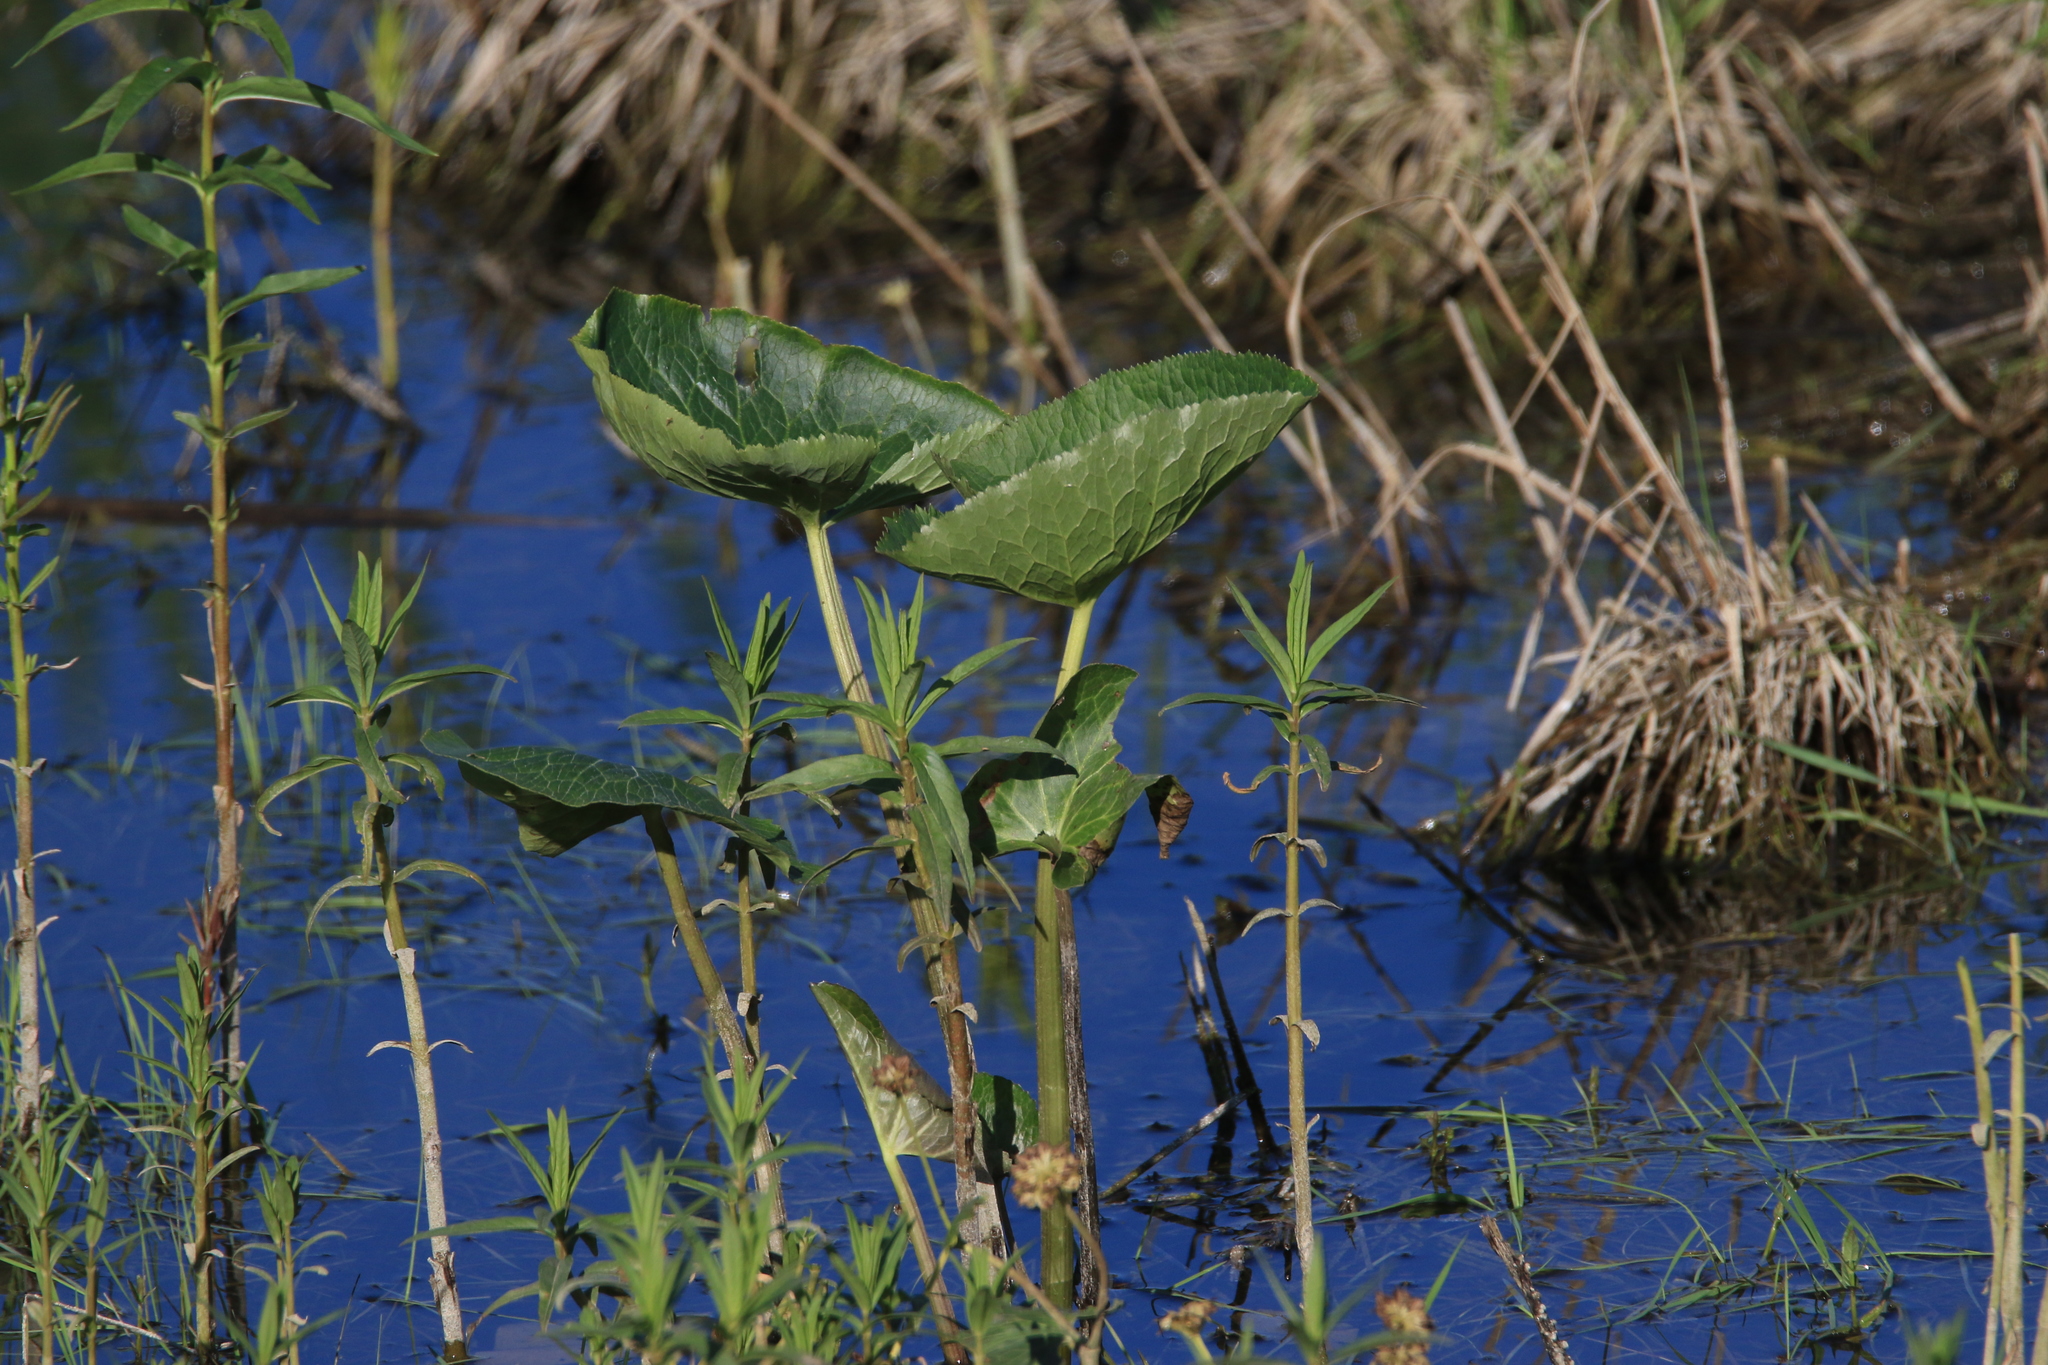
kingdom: Plantae
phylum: Tracheophyta
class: Magnoliopsida
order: Ranunculales
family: Ranunculaceae
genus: Caltha
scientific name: Caltha palustris
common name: Marsh marigold
